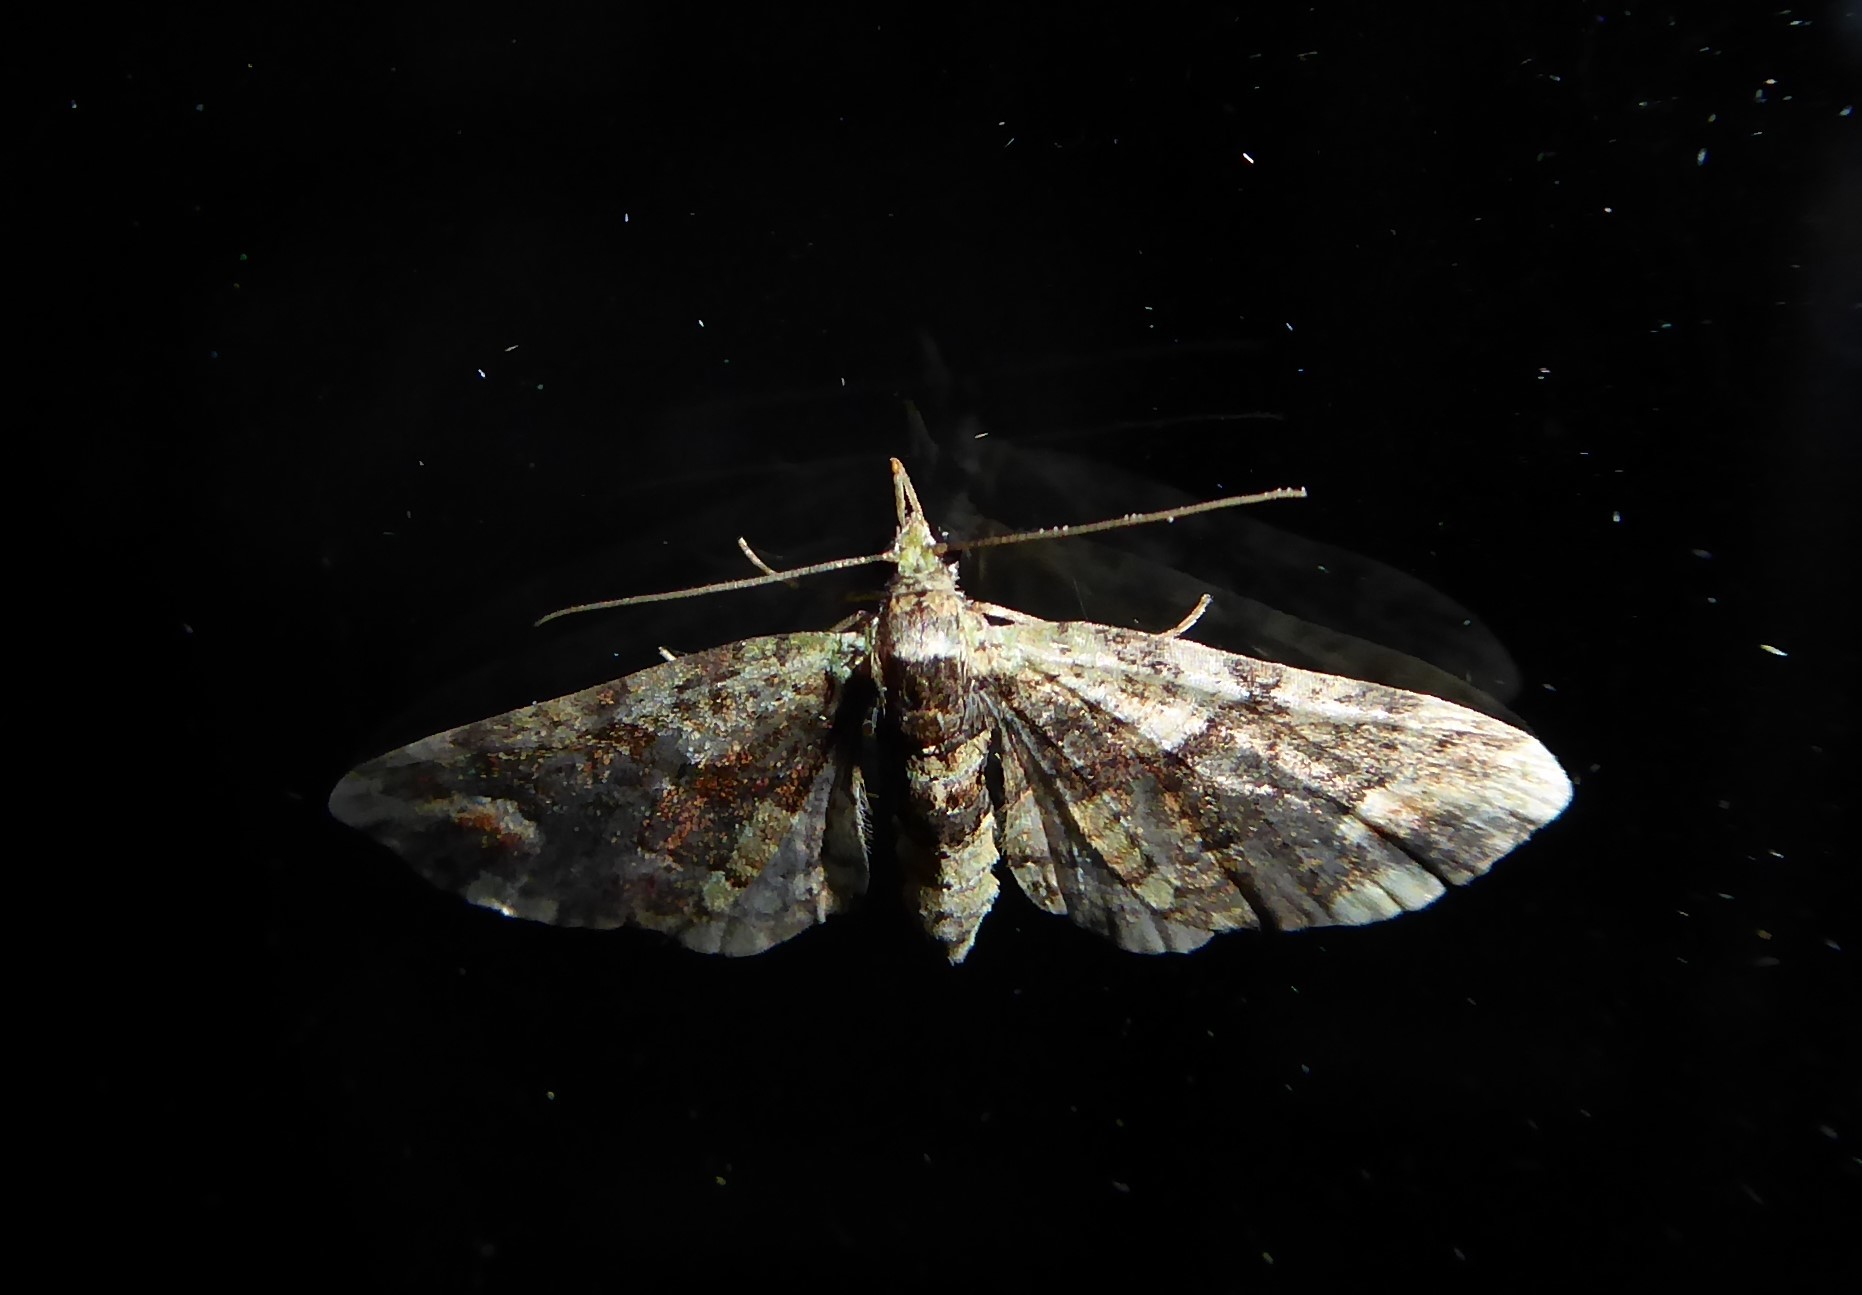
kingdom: Animalia
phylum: Arthropoda
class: Insecta
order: Lepidoptera
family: Geometridae
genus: Idaea
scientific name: Idaea mutanda
